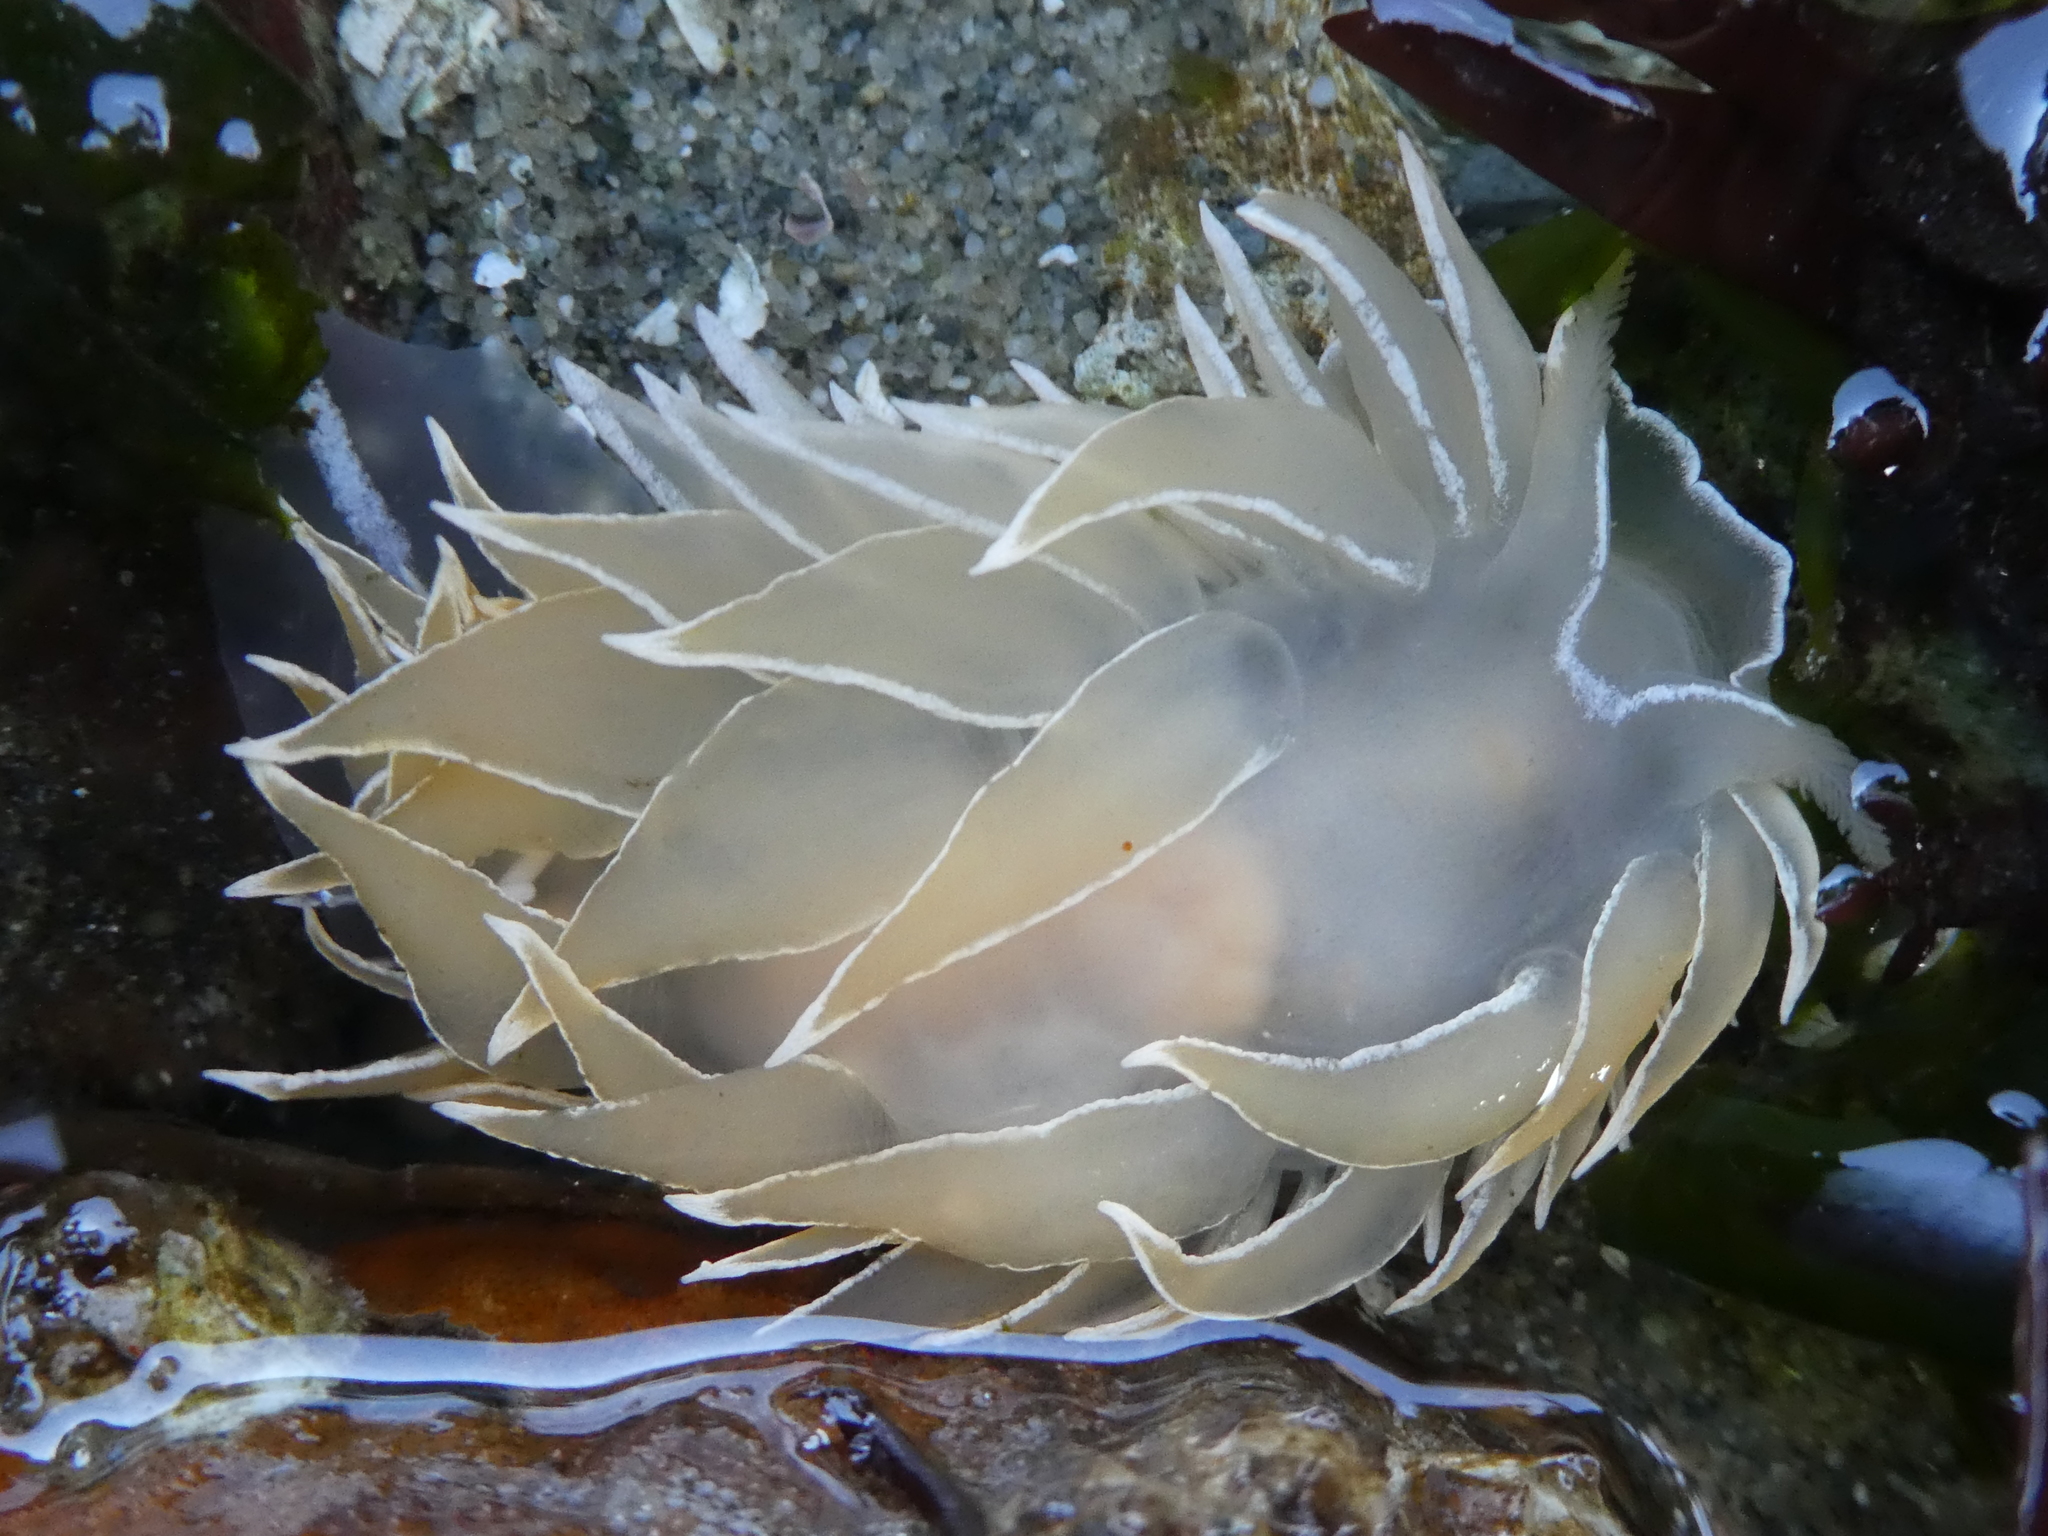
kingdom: Animalia
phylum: Mollusca
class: Gastropoda
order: Nudibranchia
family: Dironidae
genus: Dirona
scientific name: Dirona albolineata
